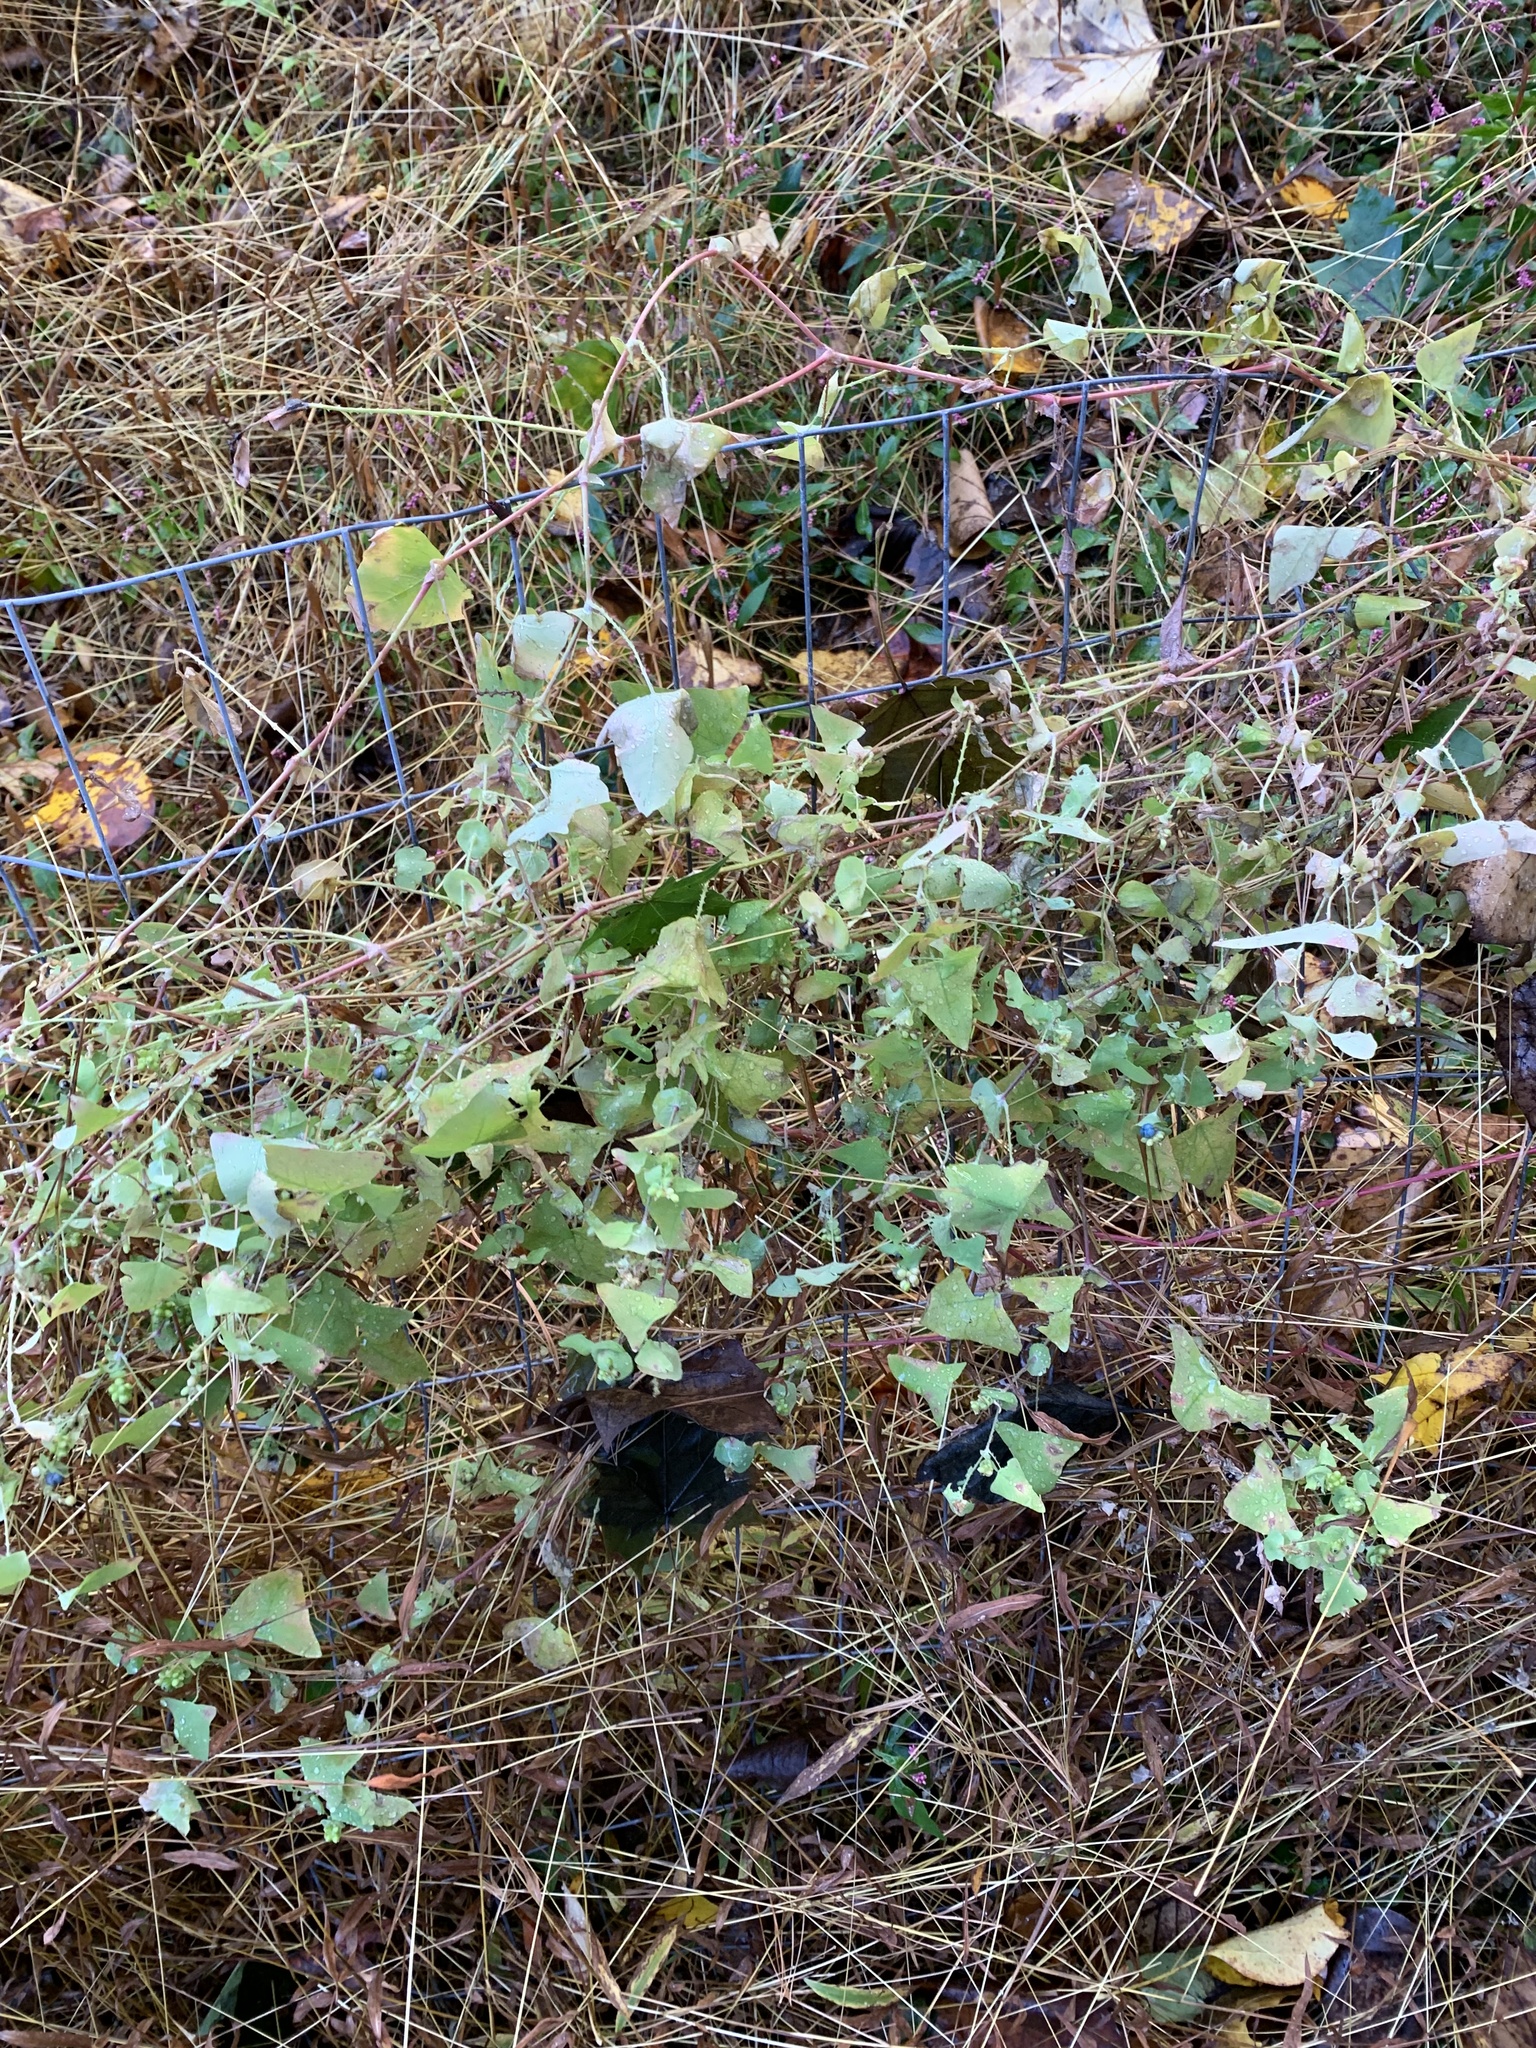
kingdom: Plantae
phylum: Tracheophyta
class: Magnoliopsida
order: Caryophyllales
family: Polygonaceae
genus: Persicaria
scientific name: Persicaria perfoliata
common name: Asiatic tearthumb
